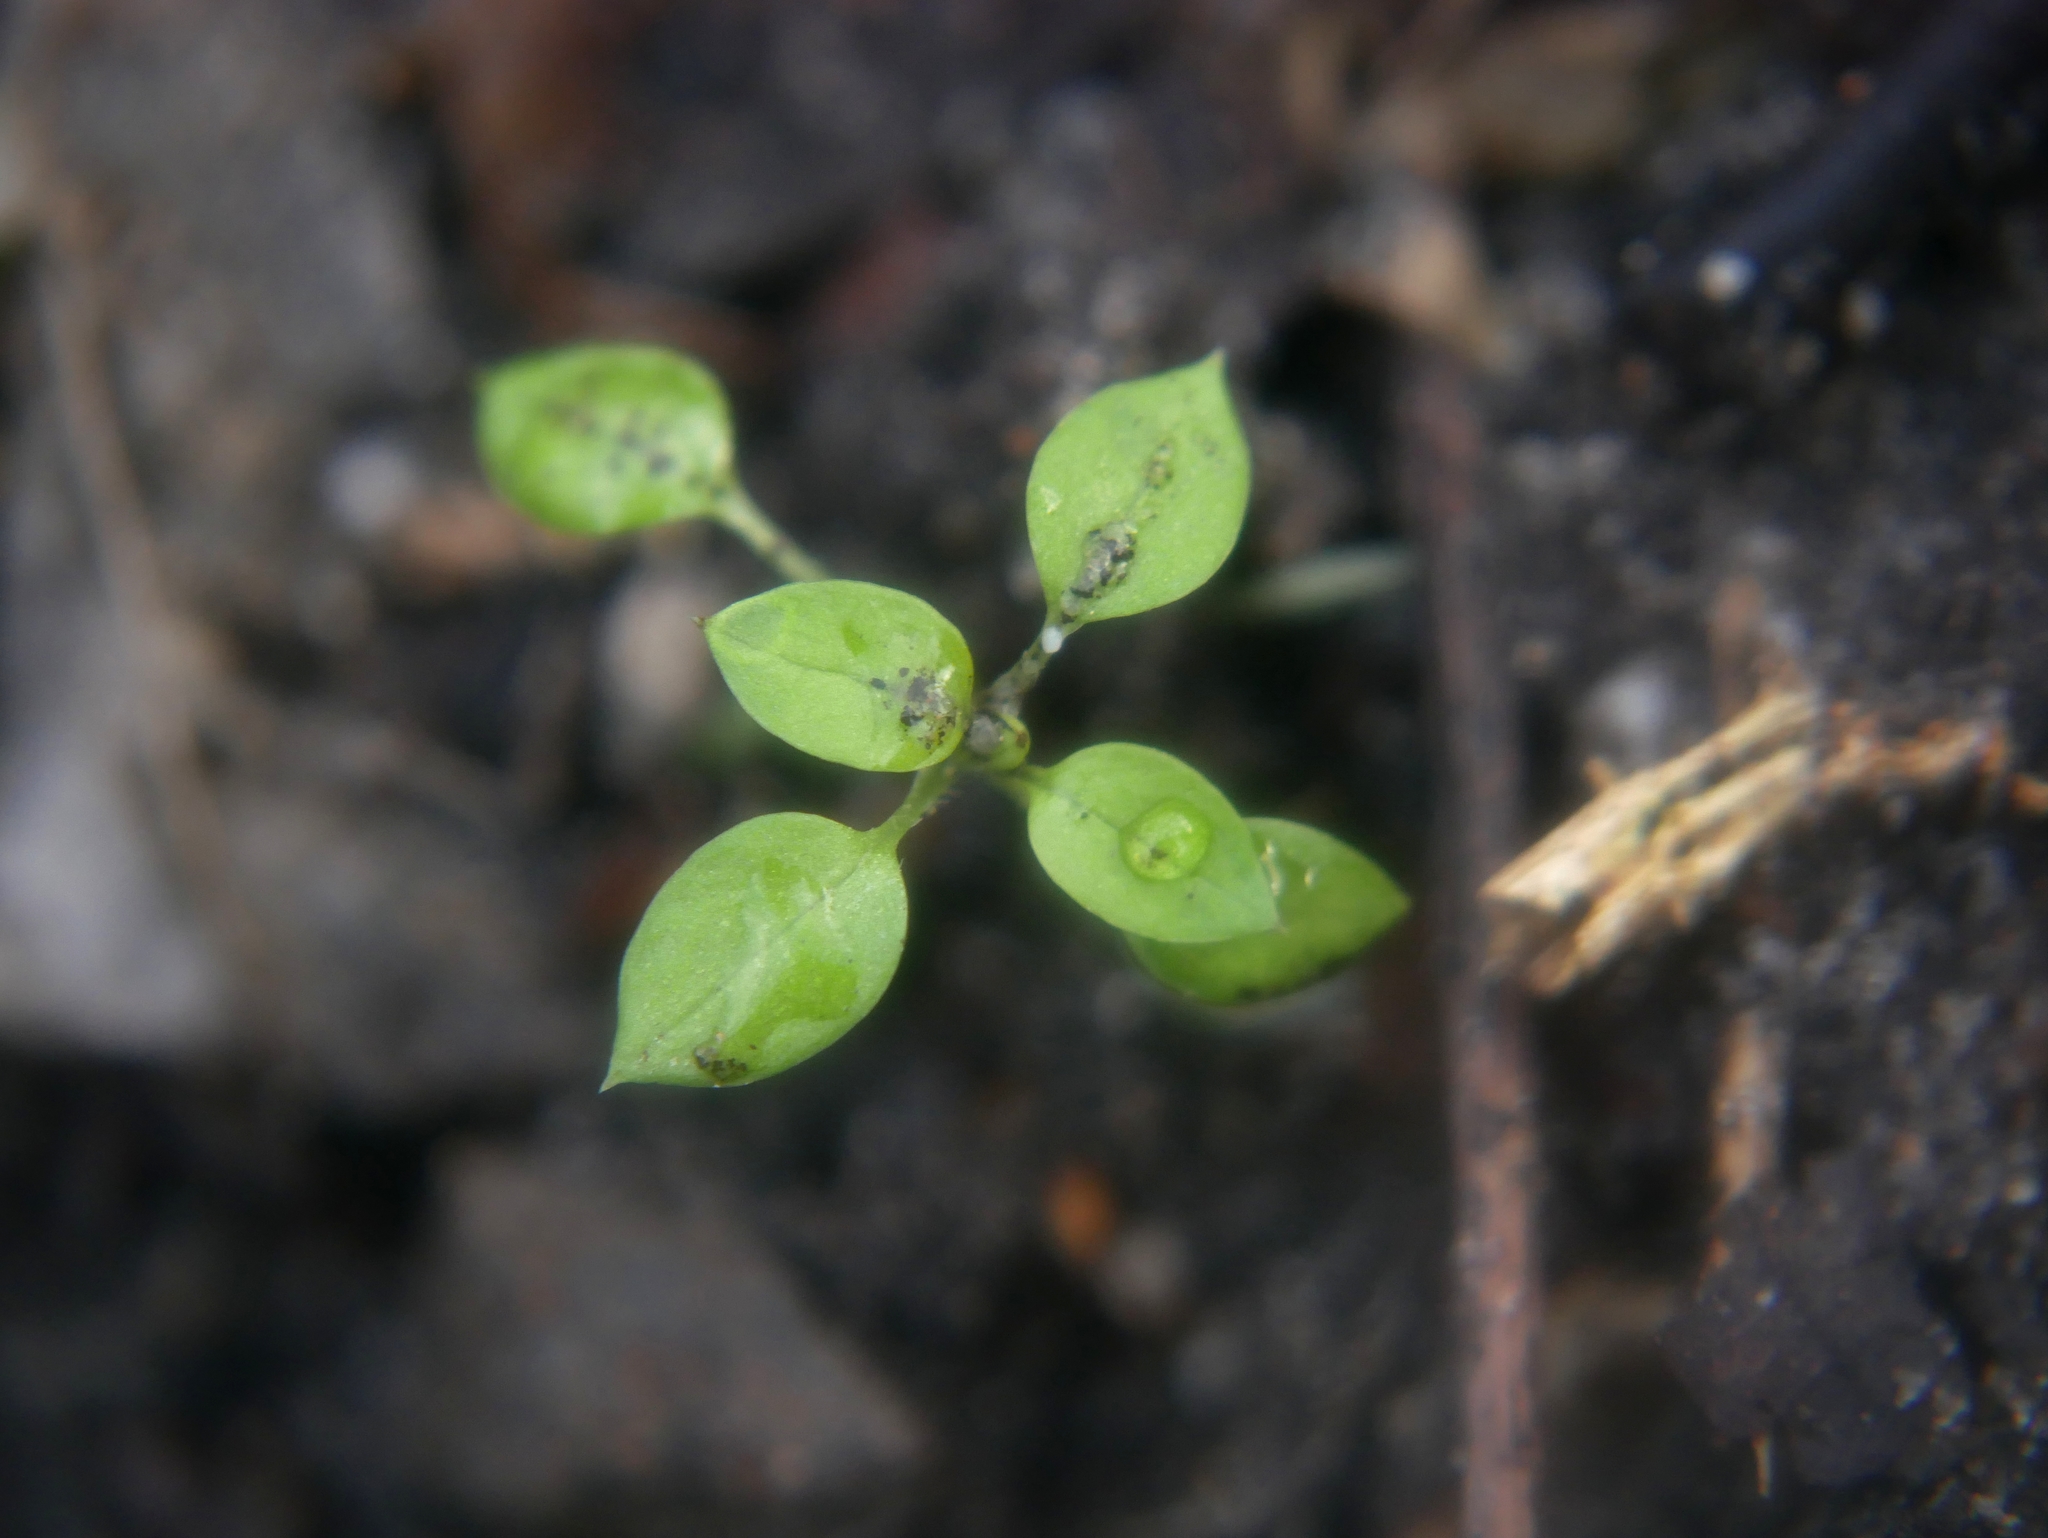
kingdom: Plantae
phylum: Tracheophyta
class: Magnoliopsida
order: Caryophyllales
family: Caryophyllaceae
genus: Stellaria
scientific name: Stellaria media
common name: Common chickweed
